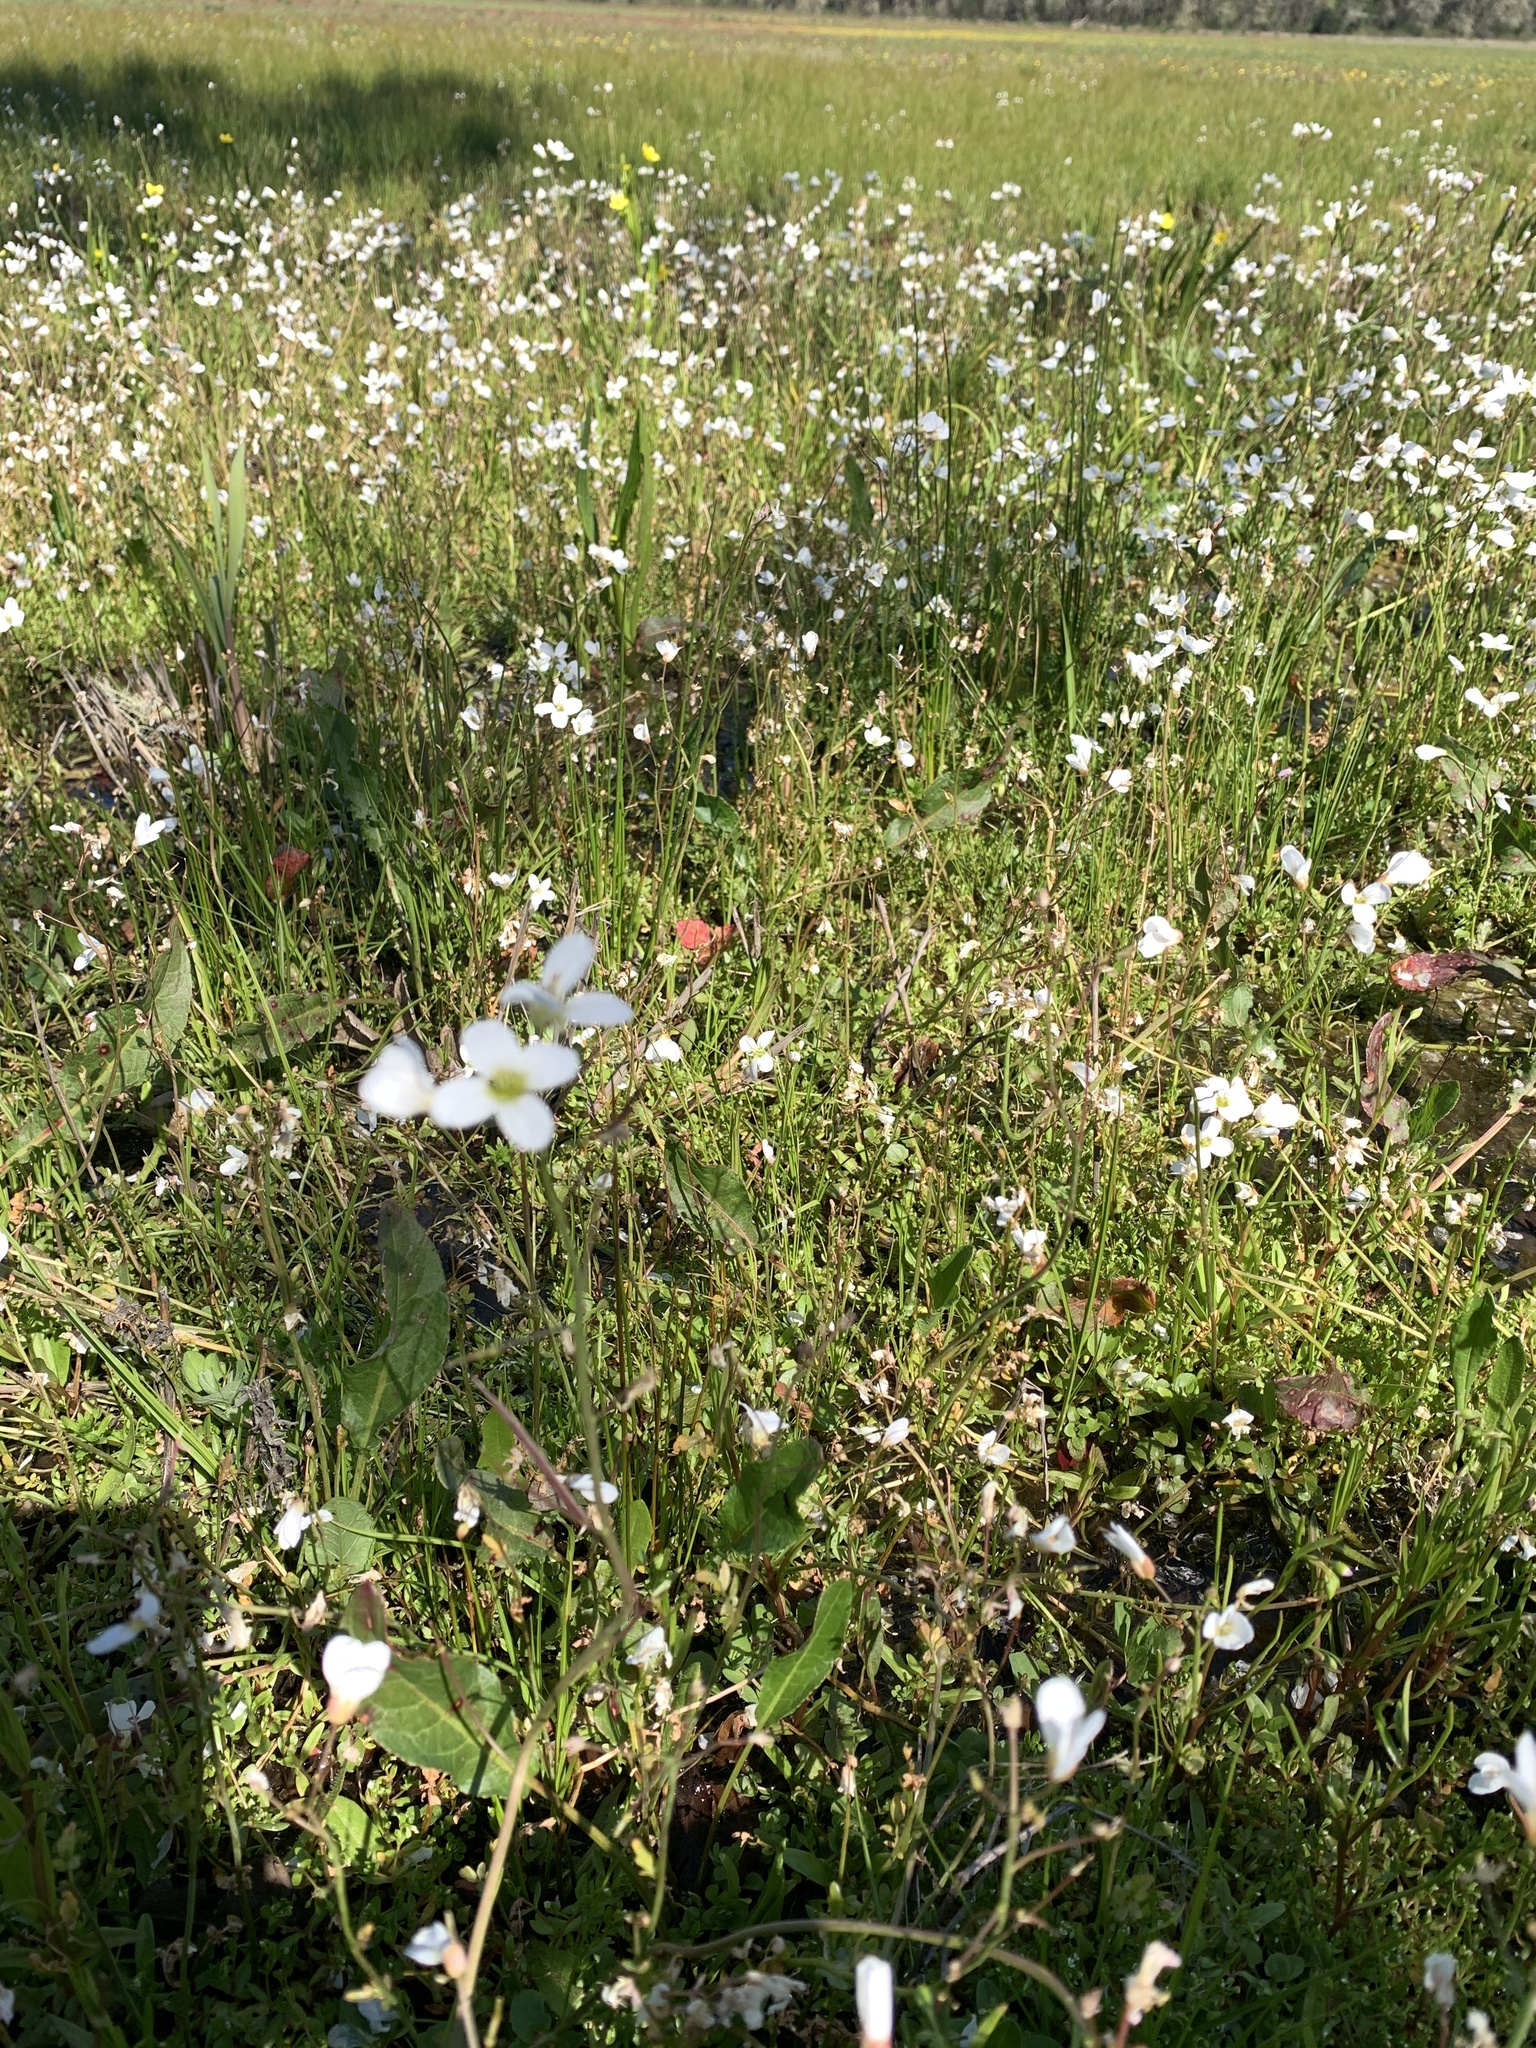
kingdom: Plantae
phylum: Tracheophyta
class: Magnoliopsida
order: Brassicales
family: Brassicaceae
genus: Cardamine
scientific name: Cardamine penduliflora
